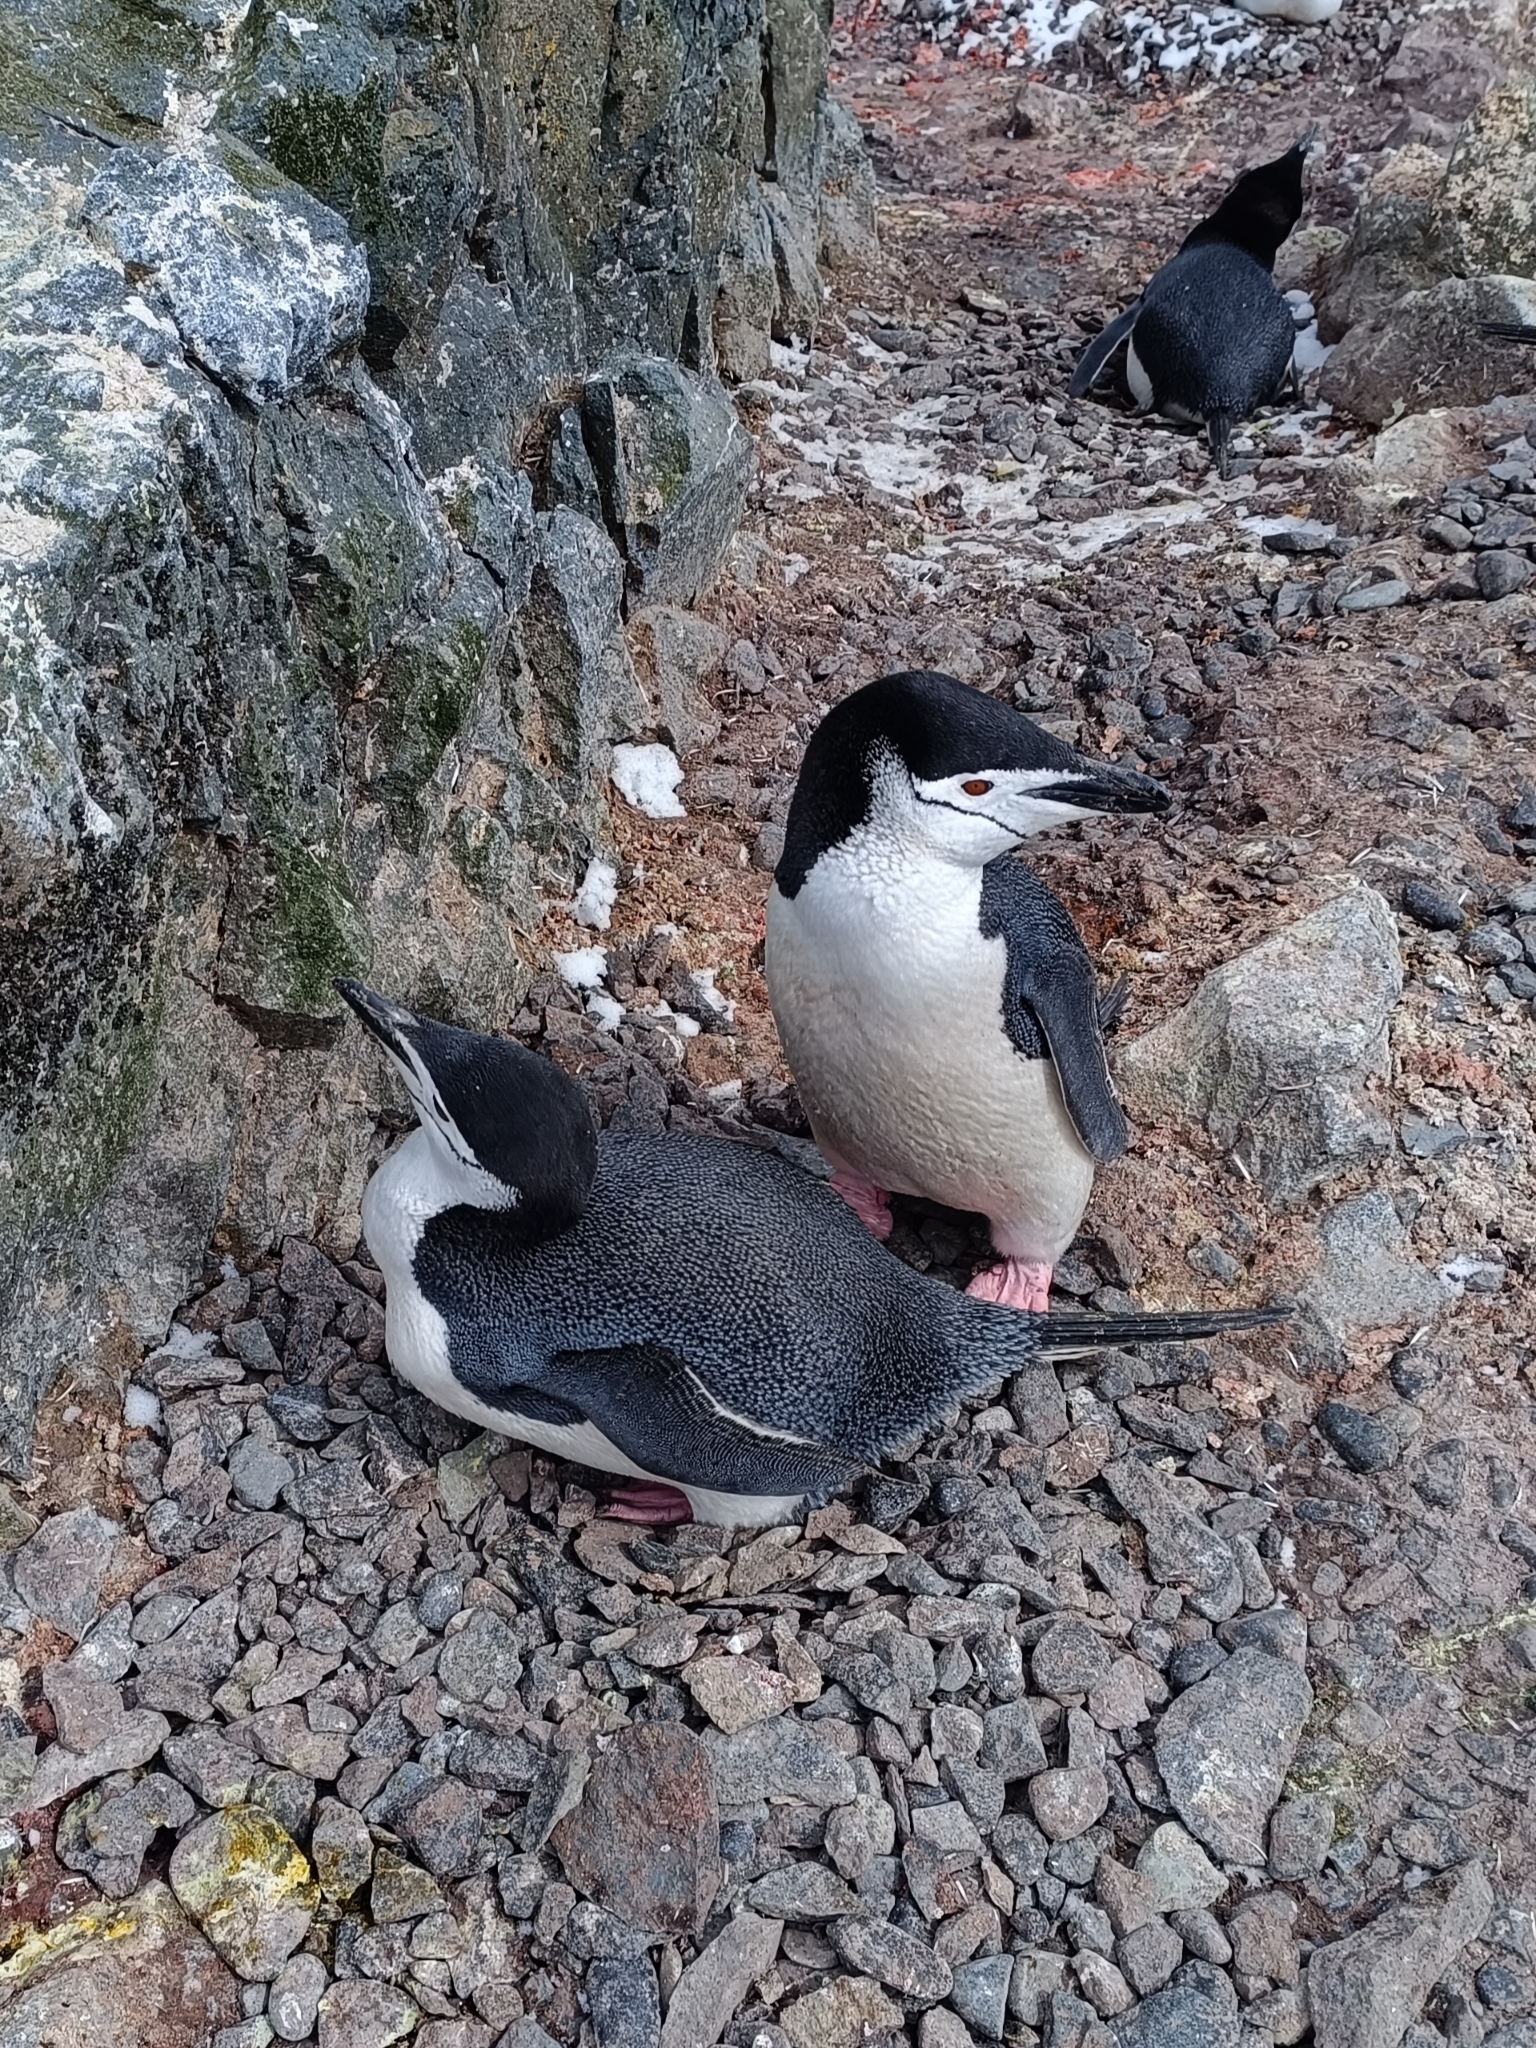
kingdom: Animalia
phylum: Chordata
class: Aves
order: Sphenisciformes
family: Spheniscidae
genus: Pygoscelis
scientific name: Pygoscelis antarcticus
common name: Chinstrap penguin
